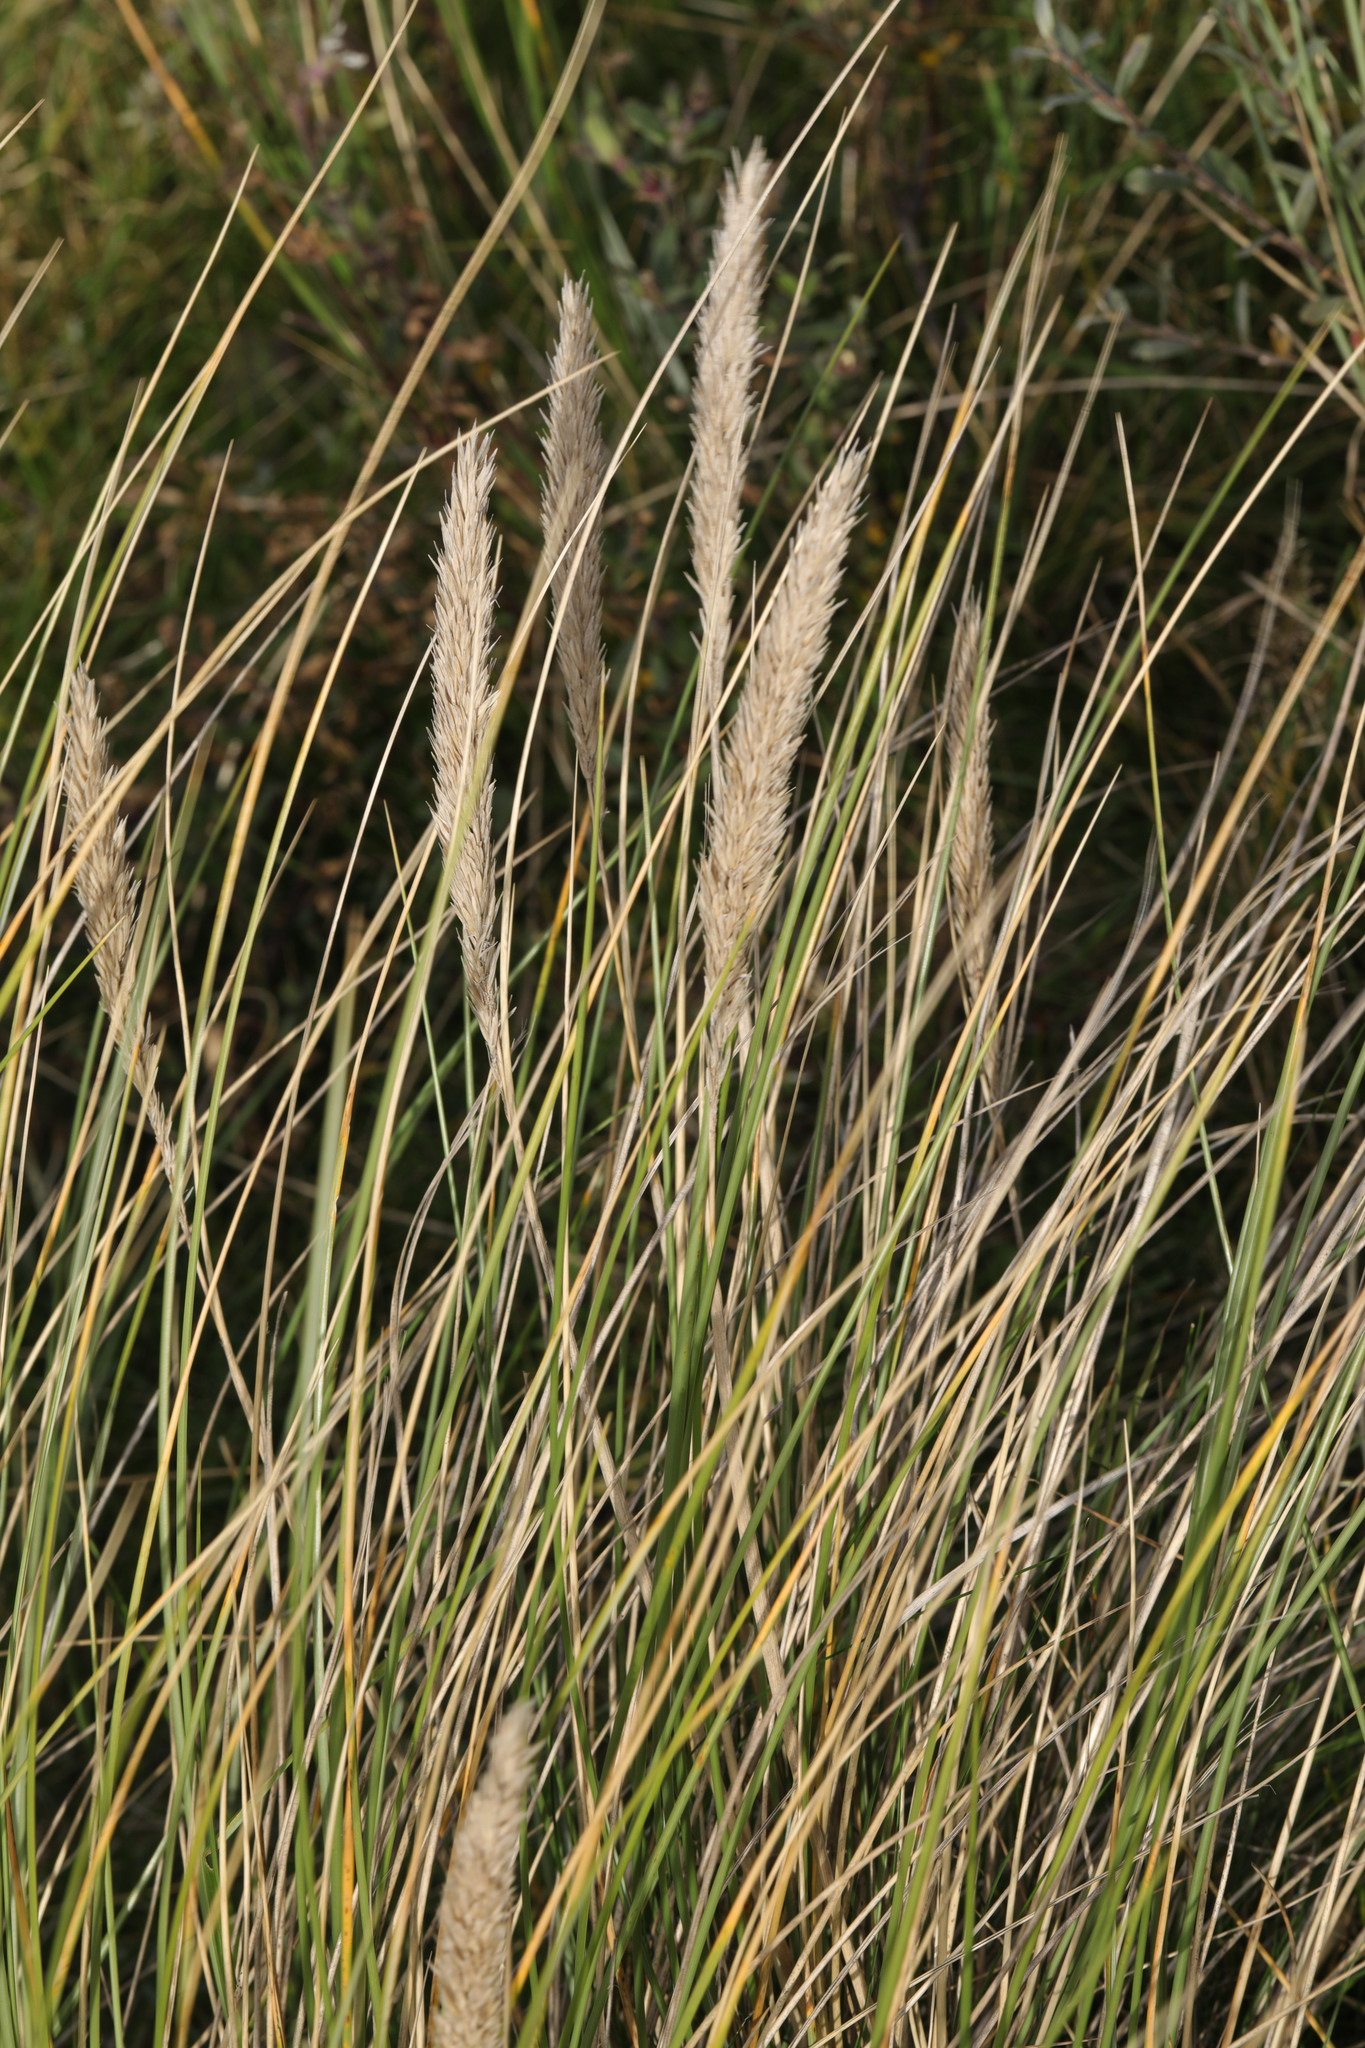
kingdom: Plantae
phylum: Tracheophyta
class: Liliopsida
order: Poales
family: Poaceae
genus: Calamagrostis
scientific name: Calamagrostis arenaria
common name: European beachgrass
